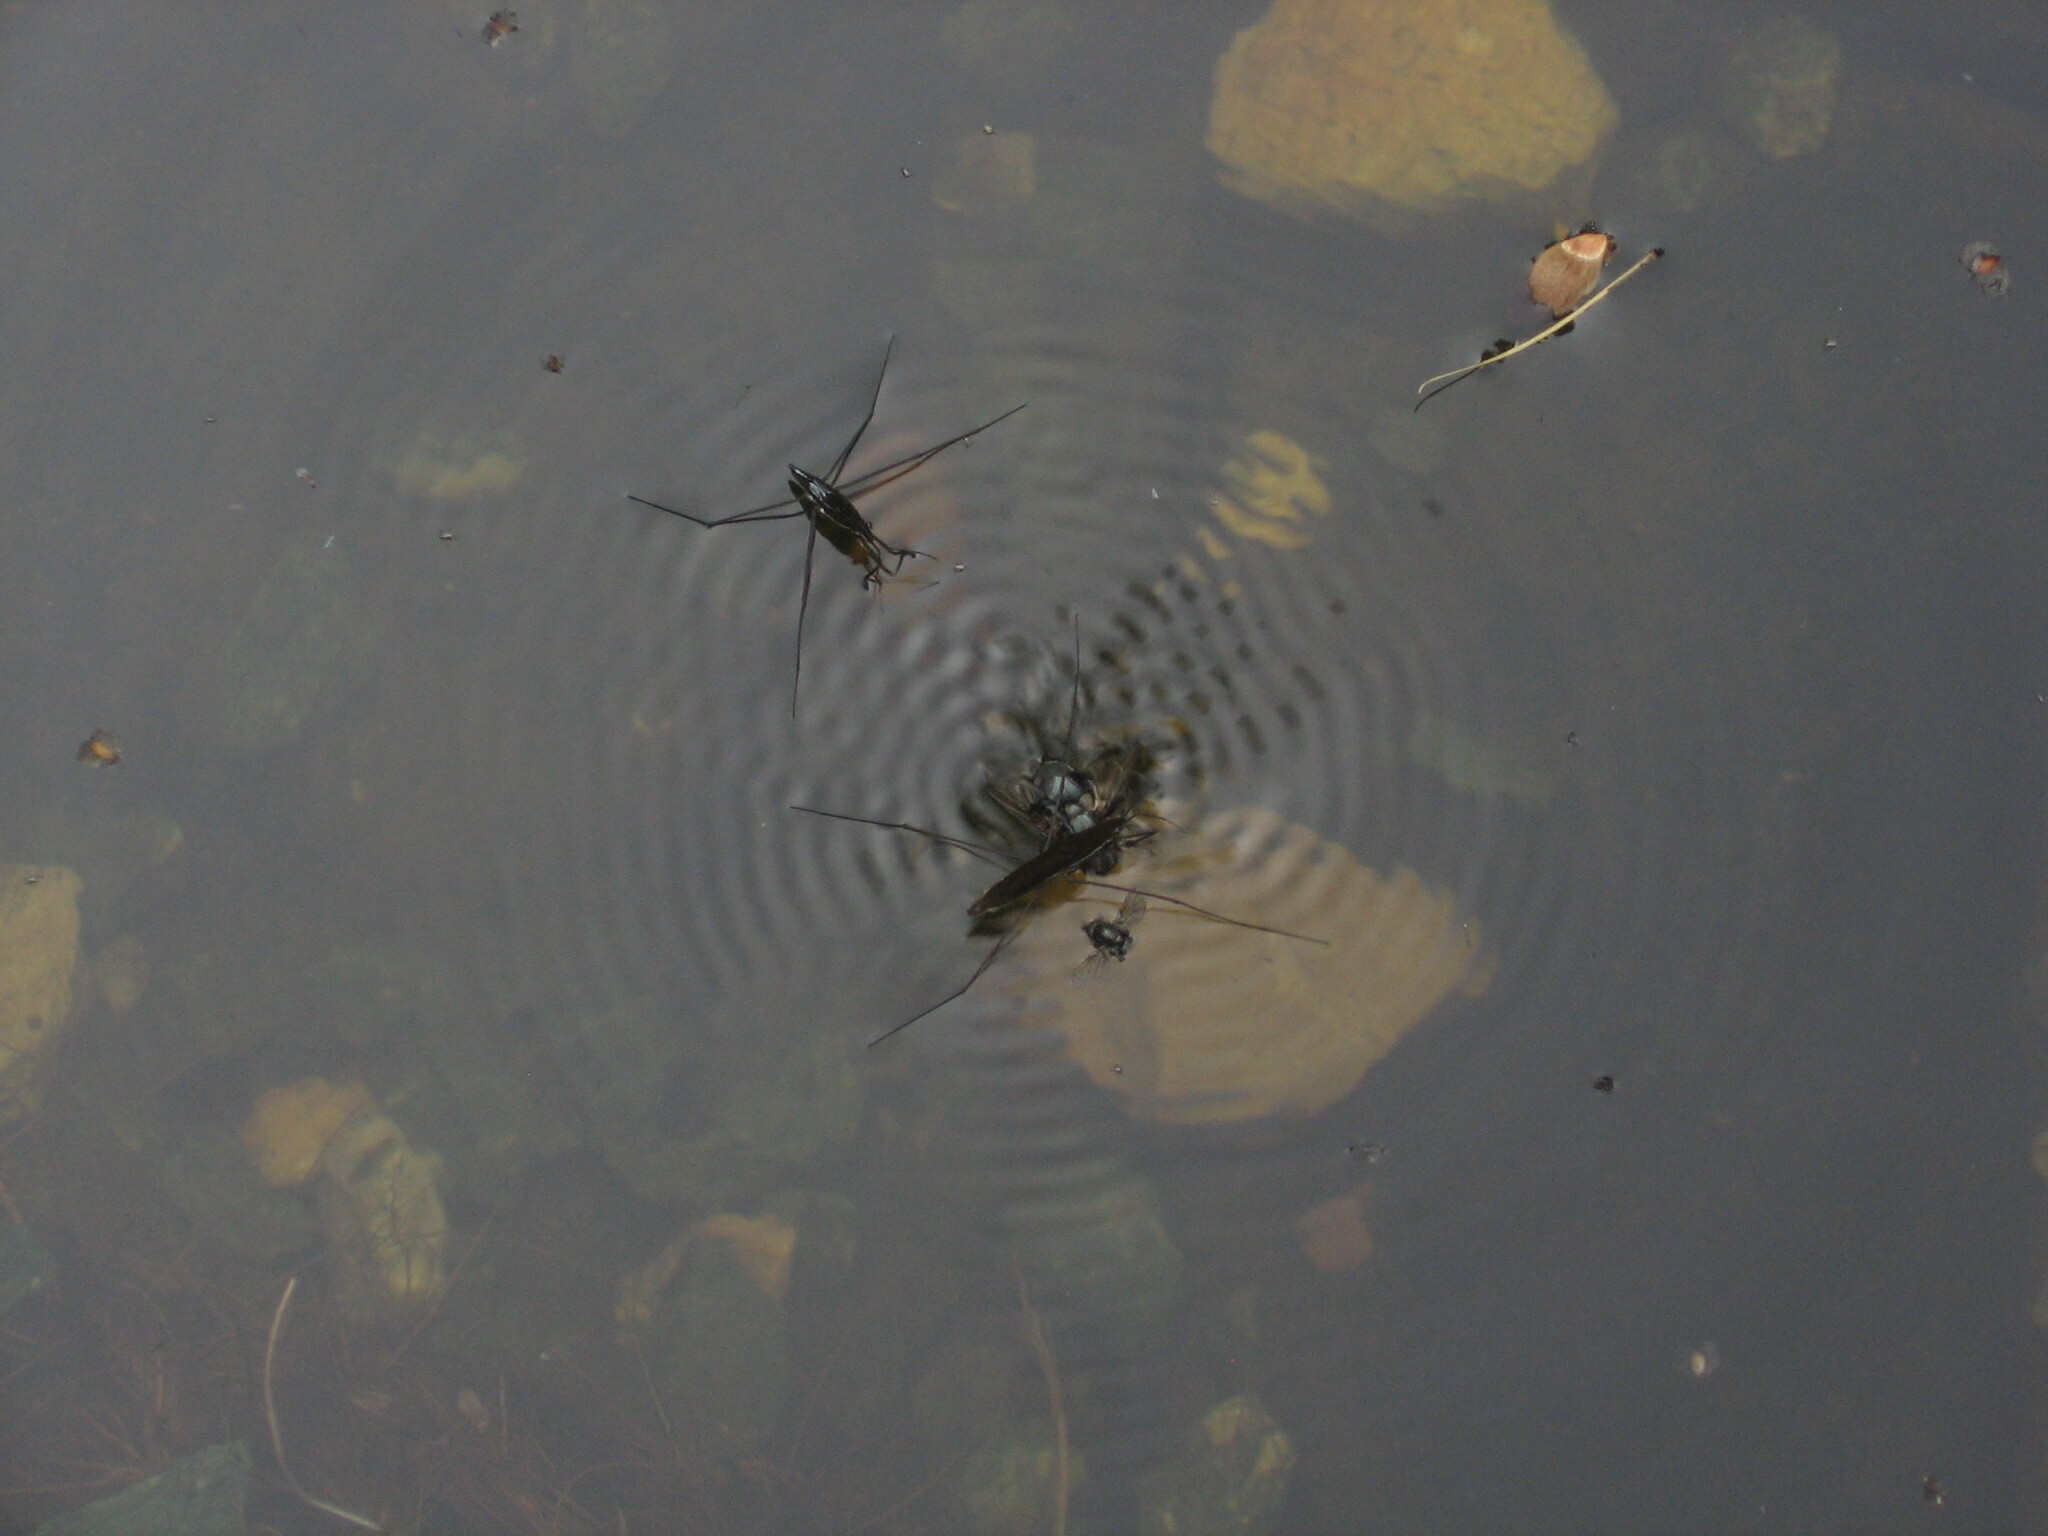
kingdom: Animalia
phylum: Arthropoda
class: Insecta
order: Hemiptera
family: Gerridae
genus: Limnoporus
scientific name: Limnoporus rufoscutellatus
